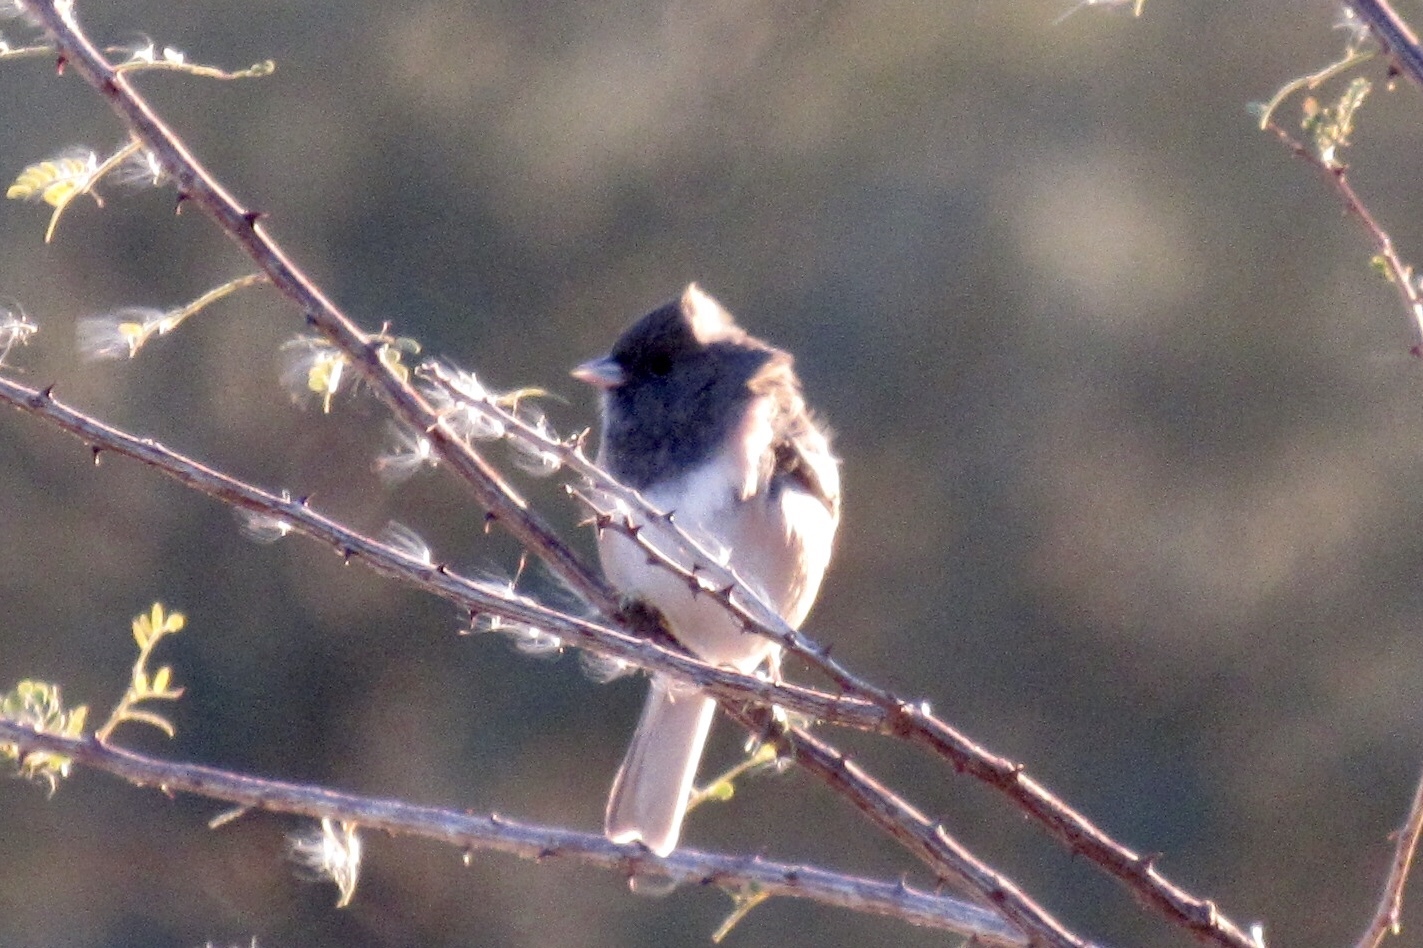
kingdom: Animalia
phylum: Chordata
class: Aves
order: Passeriformes
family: Passerellidae
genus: Junco
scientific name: Junco hyemalis
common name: Dark-eyed junco
